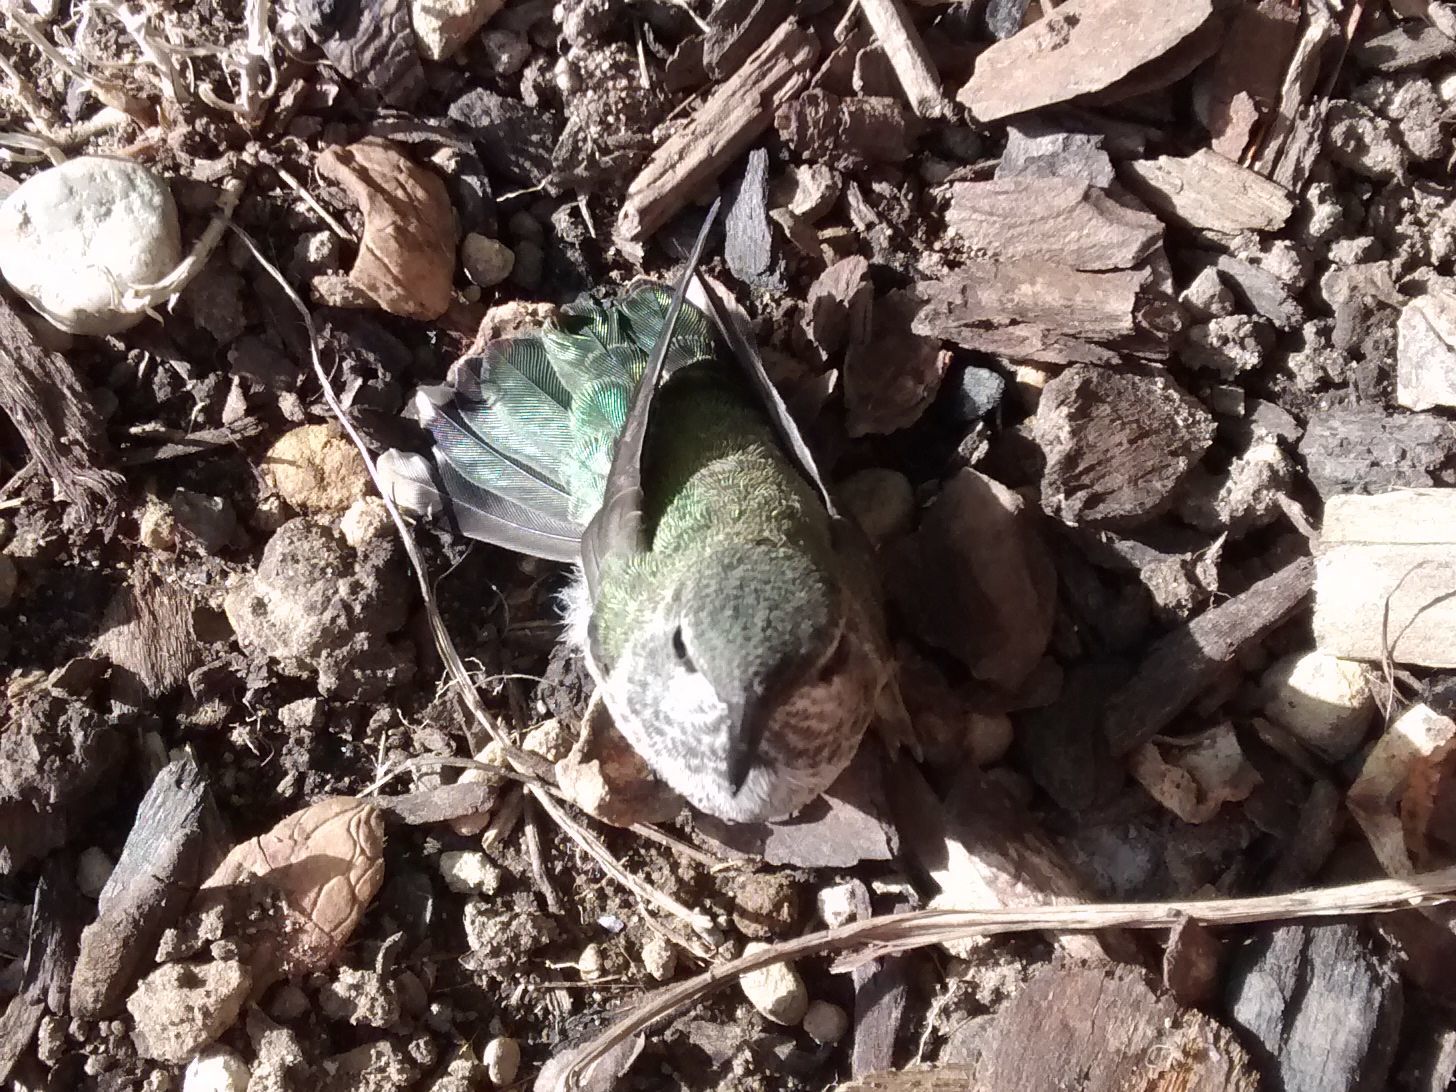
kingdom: Animalia
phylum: Chordata
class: Aves
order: Apodiformes
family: Trochilidae
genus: Calypte
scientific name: Calypte anna
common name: Anna's hummingbird
